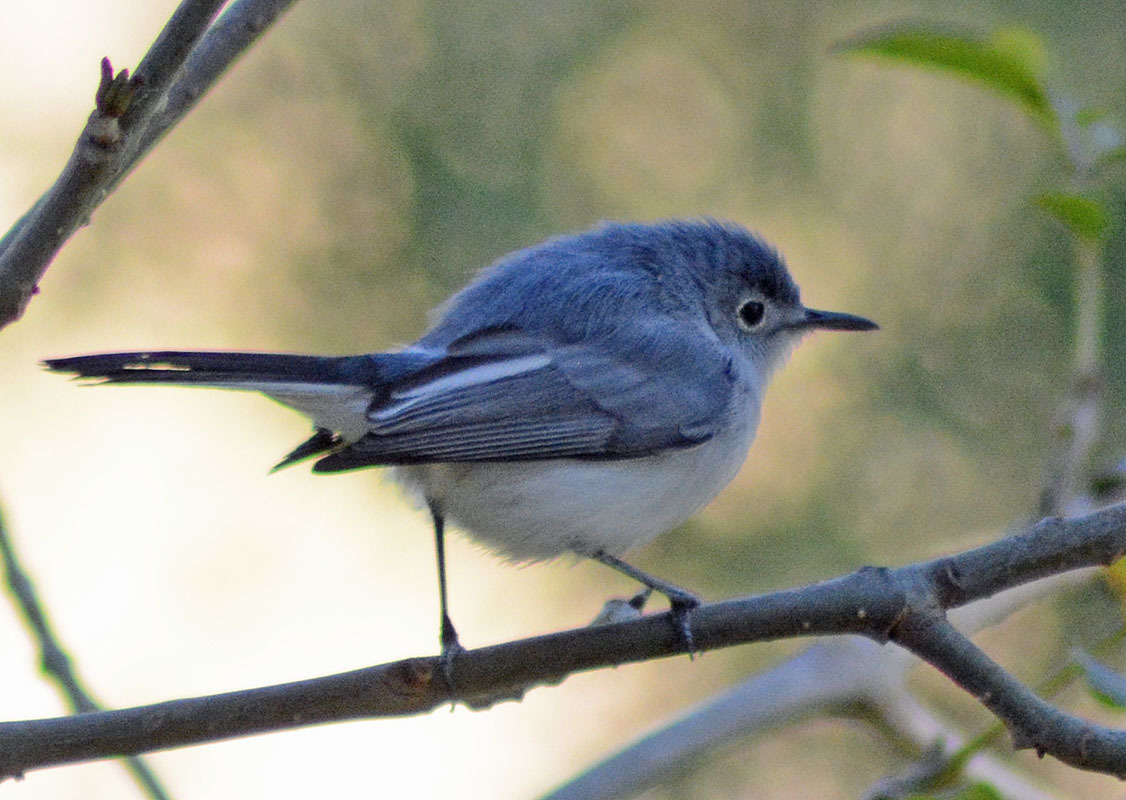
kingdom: Animalia
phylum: Chordata
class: Aves
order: Passeriformes
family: Polioptilidae
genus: Polioptila
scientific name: Polioptila caerulea
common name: Blue-gray gnatcatcher
